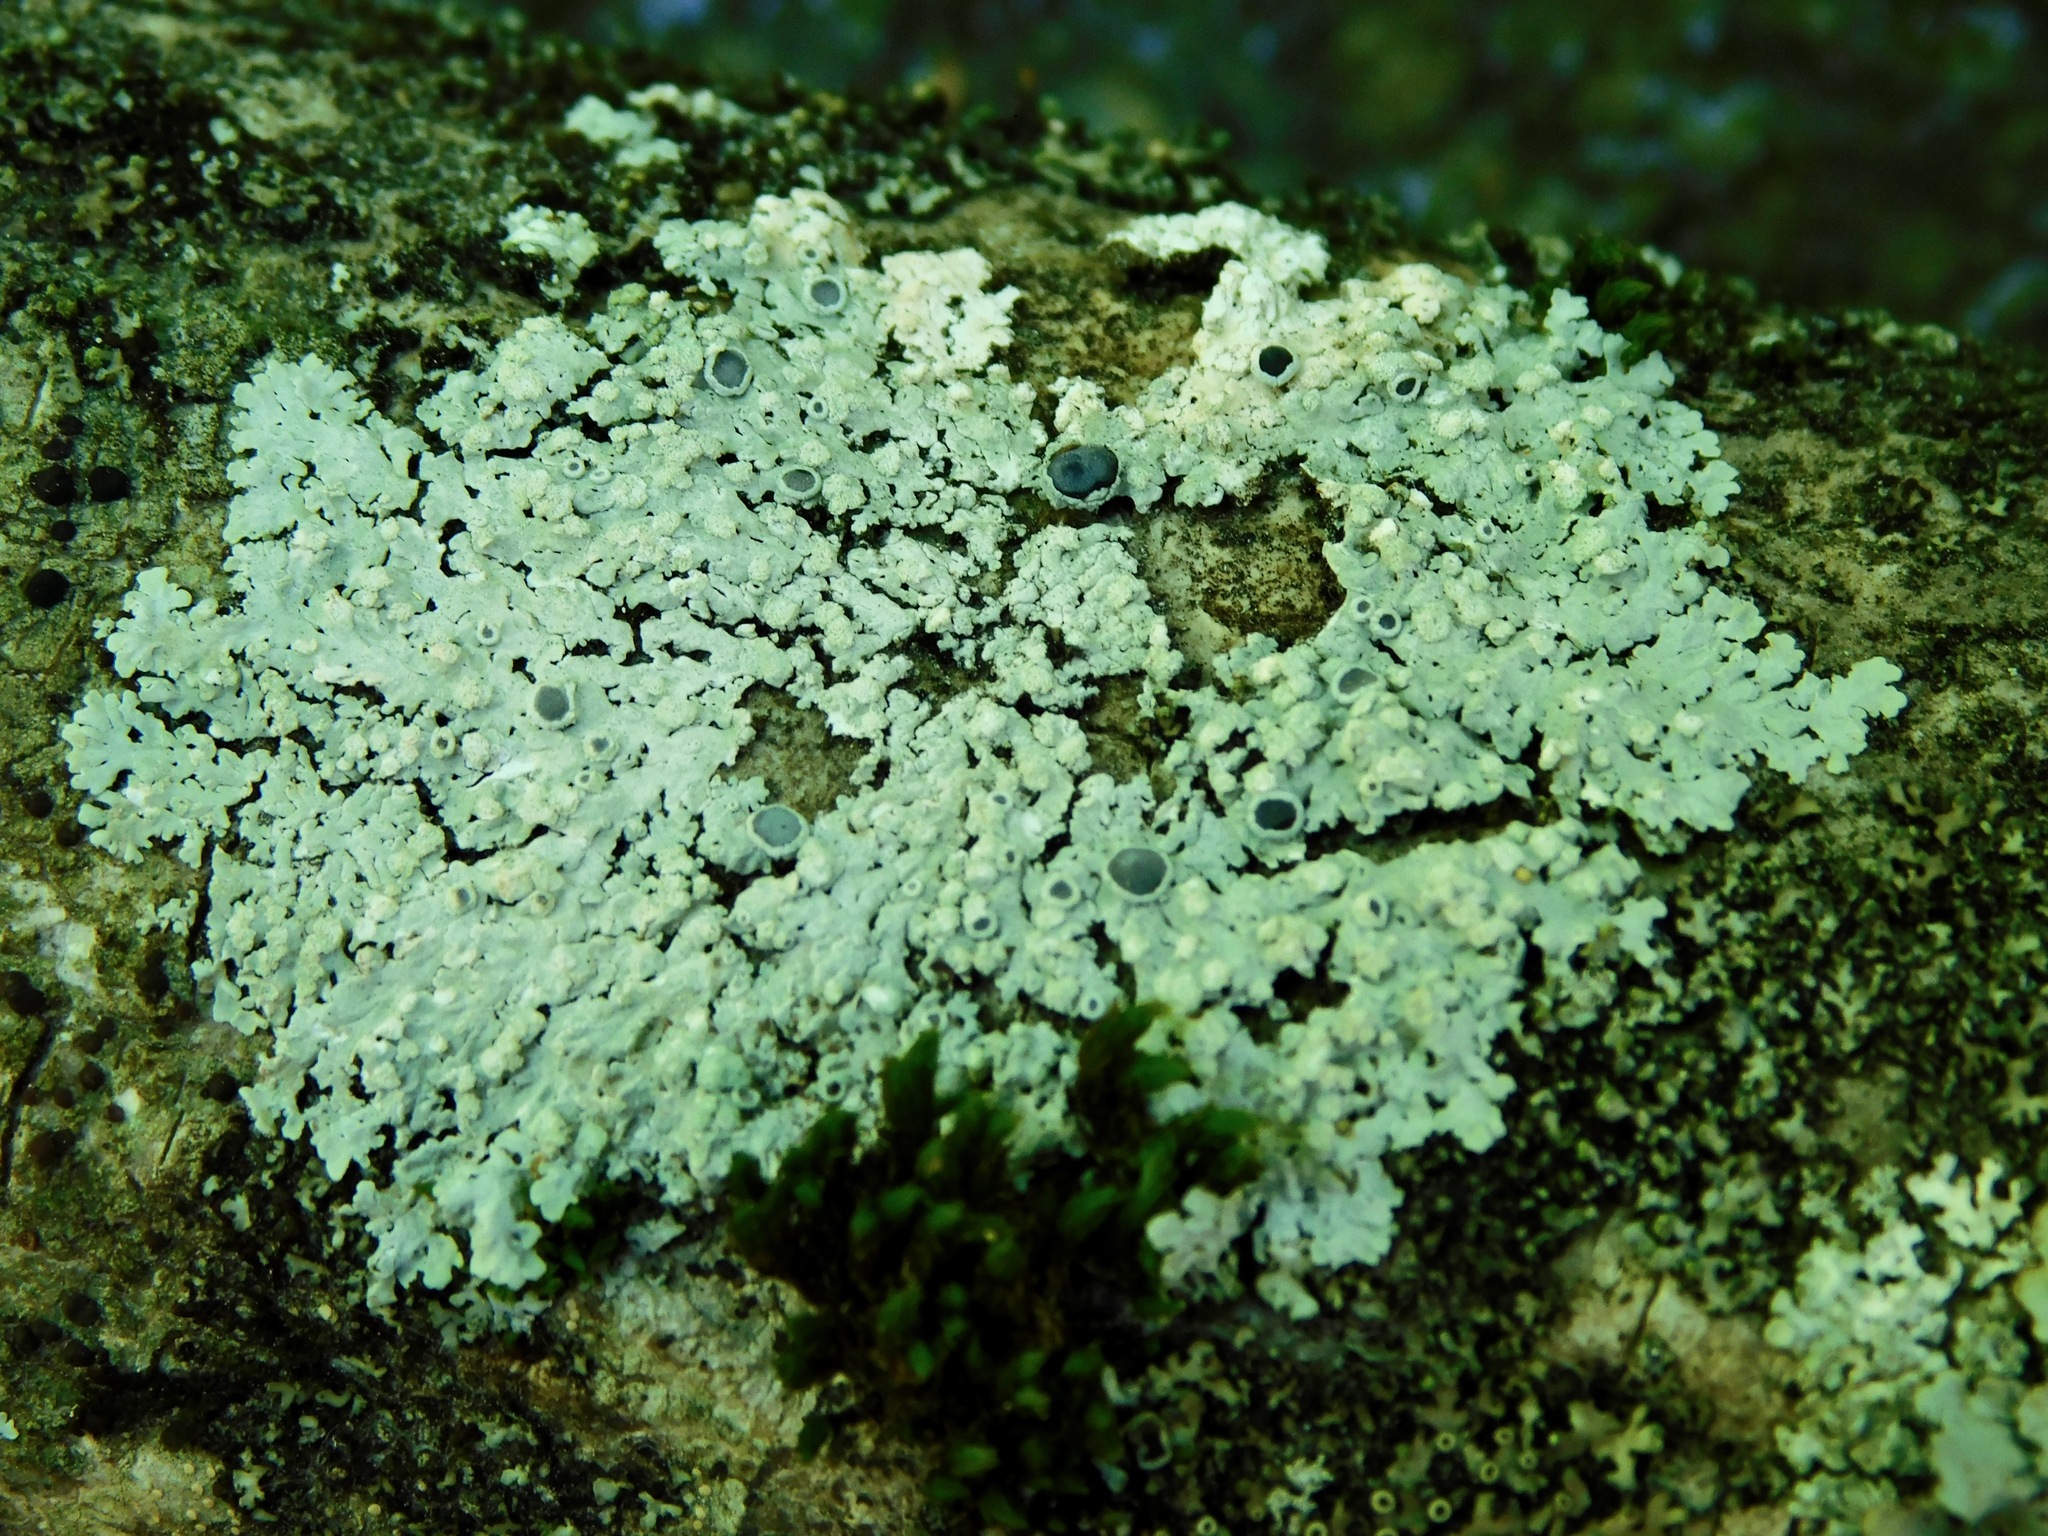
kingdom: Fungi
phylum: Ascomycota
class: Lecanoromycetes
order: Caliciales
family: Physciaceae
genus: Physcia
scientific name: Physcia americana
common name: American rosette lichen
